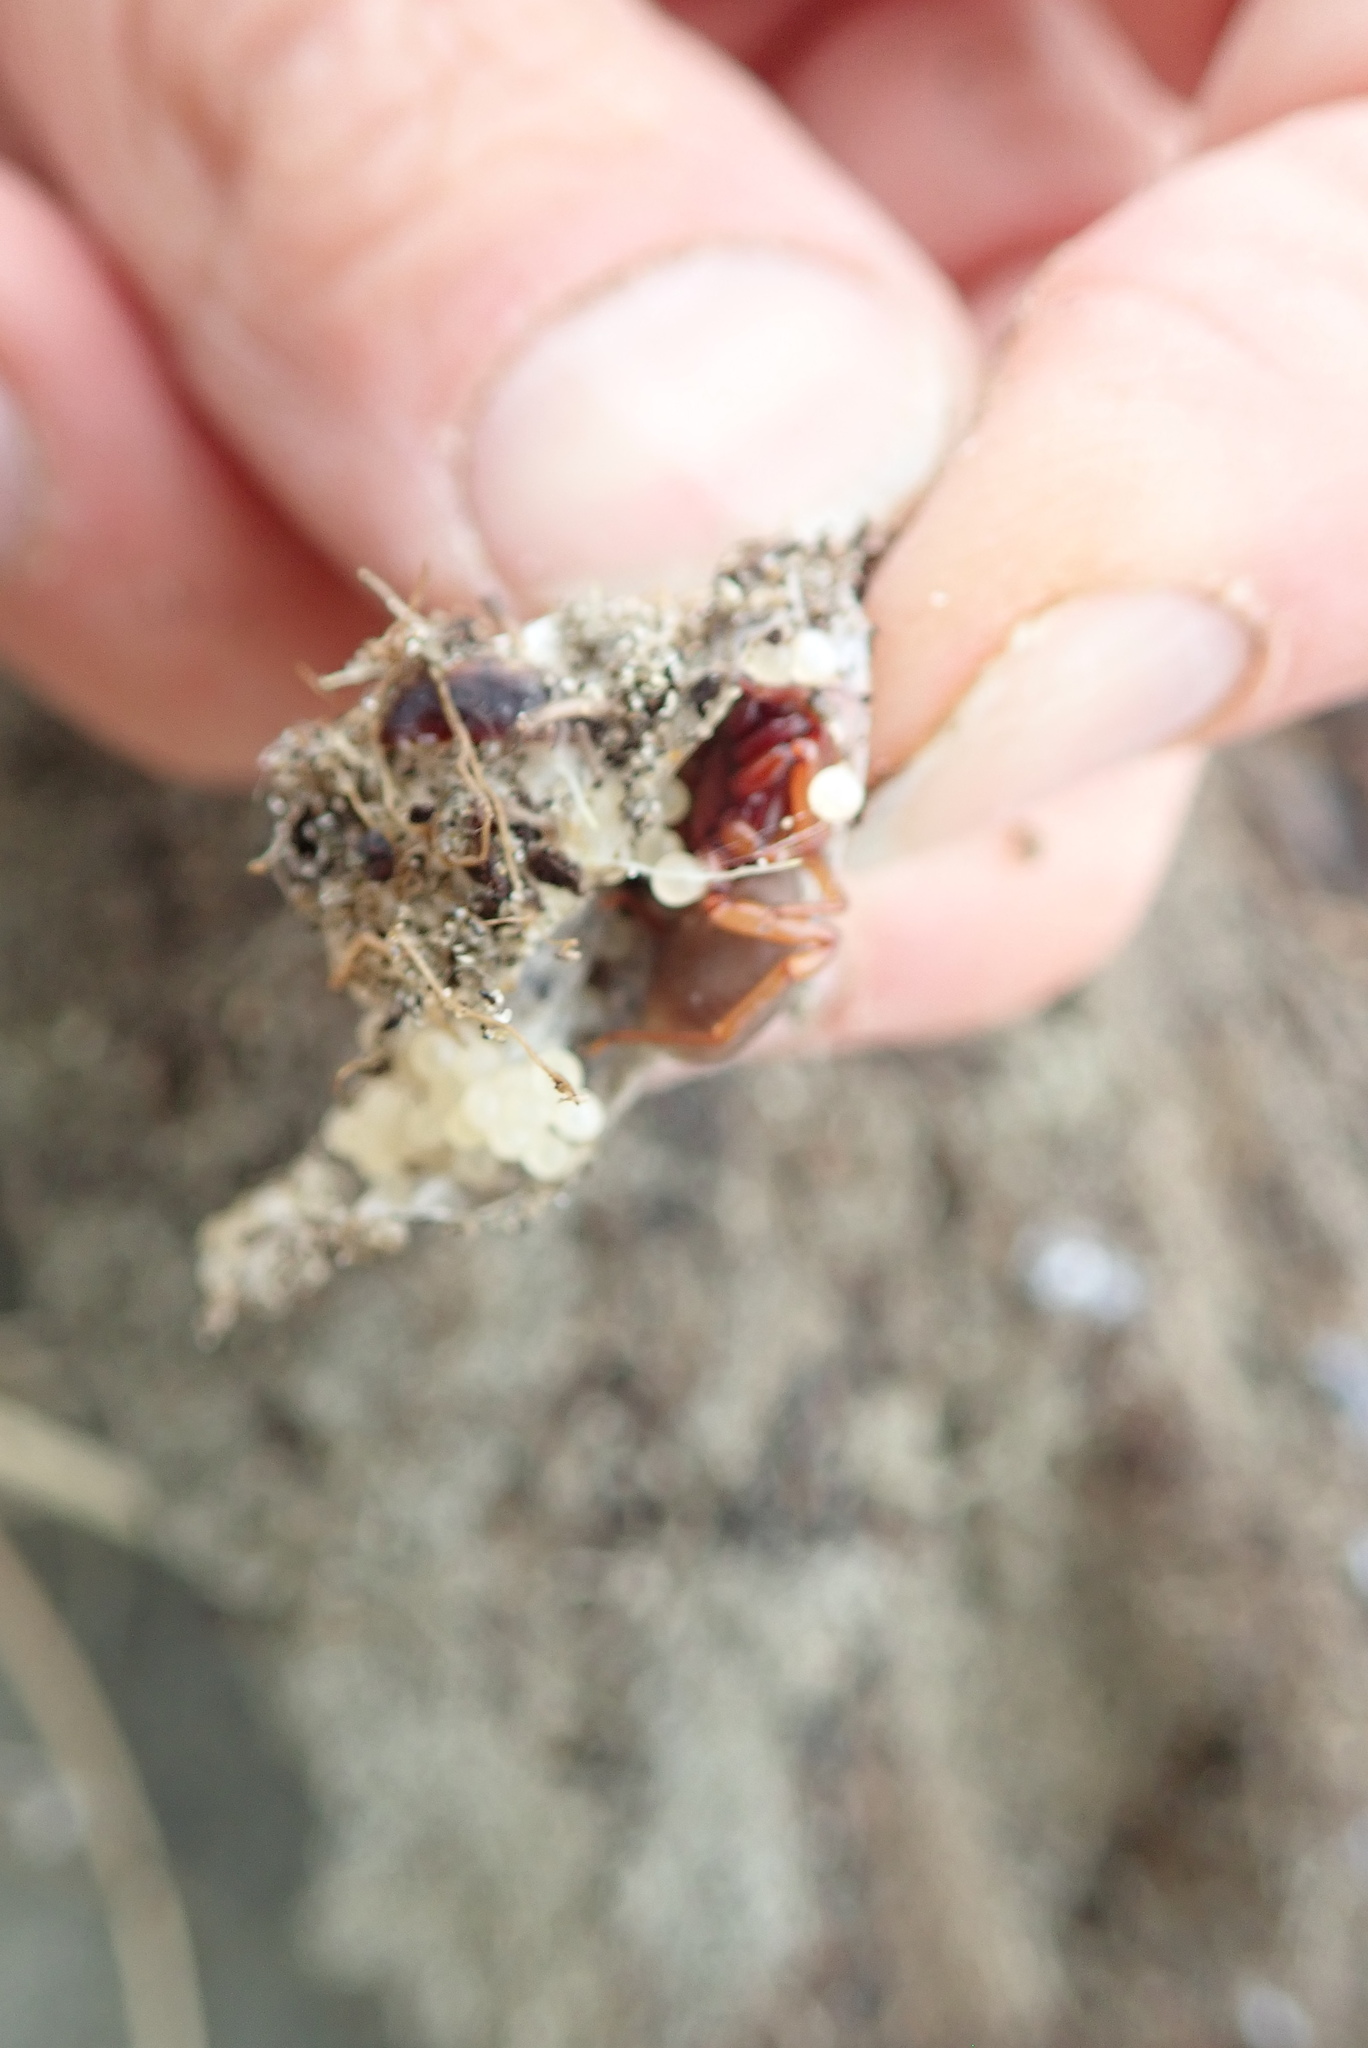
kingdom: Animalia
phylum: Arthropoda
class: Arachnida
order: Araneae
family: Dysderidae
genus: Dysdera
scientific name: Dysdera crocata
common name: Woodlouse spider
